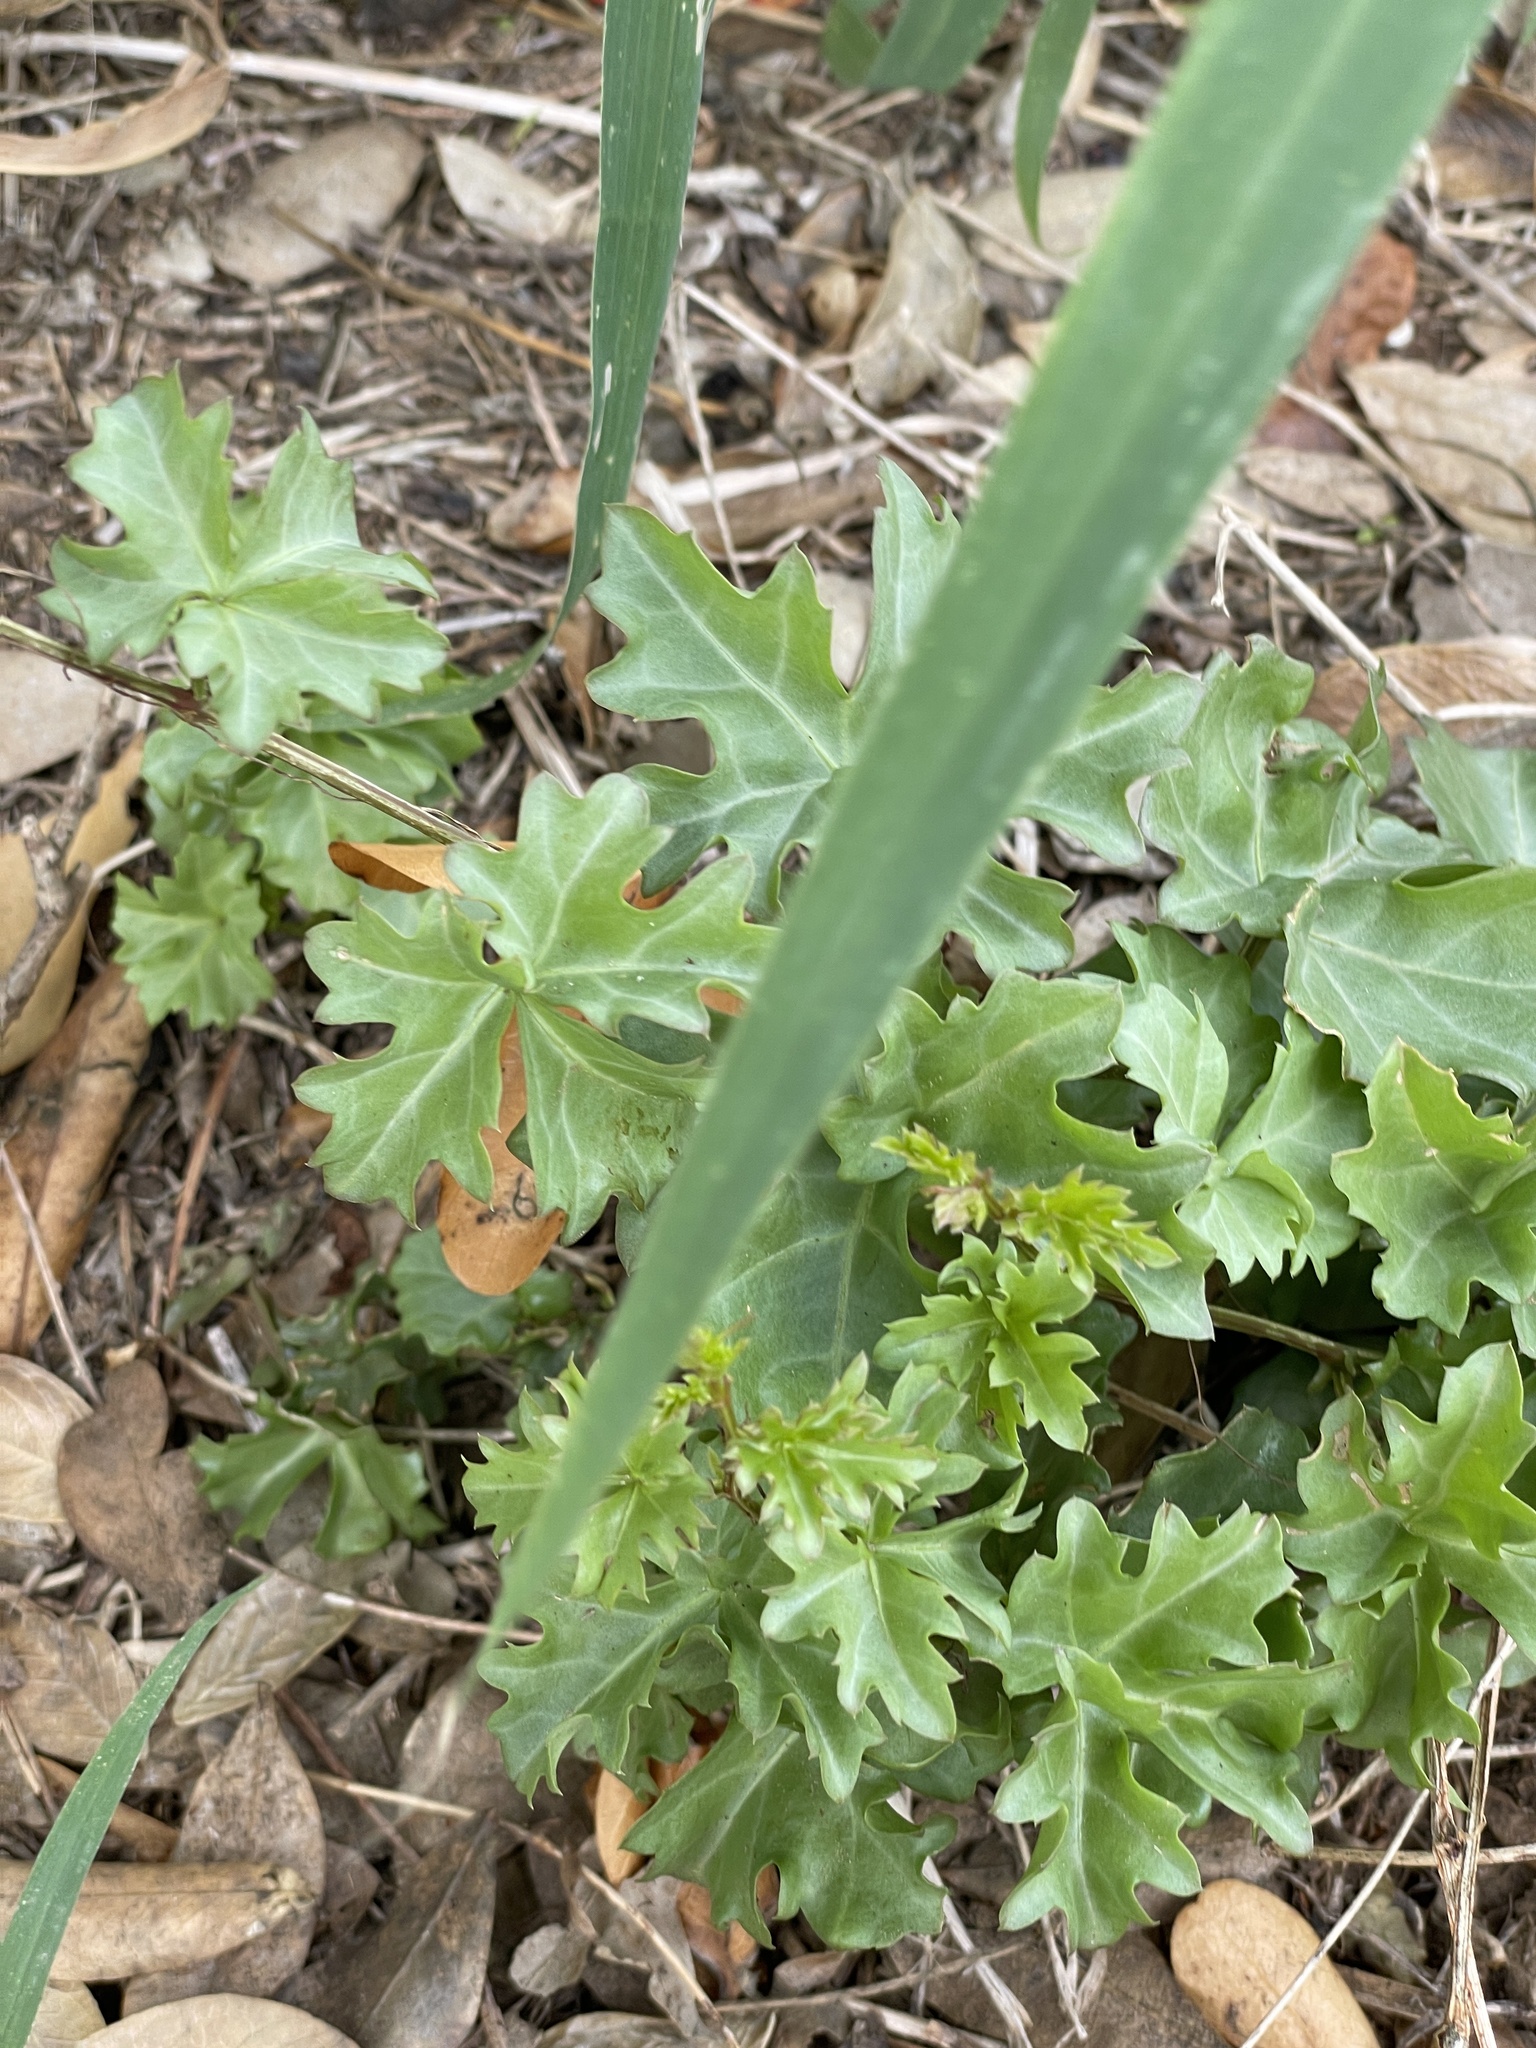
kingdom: Plantae
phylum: Tracheophyta
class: Magnoliopsida
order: Vitales
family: Vitaceae
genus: Cissus
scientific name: Cissus trifoliata
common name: Vine-sorrel
